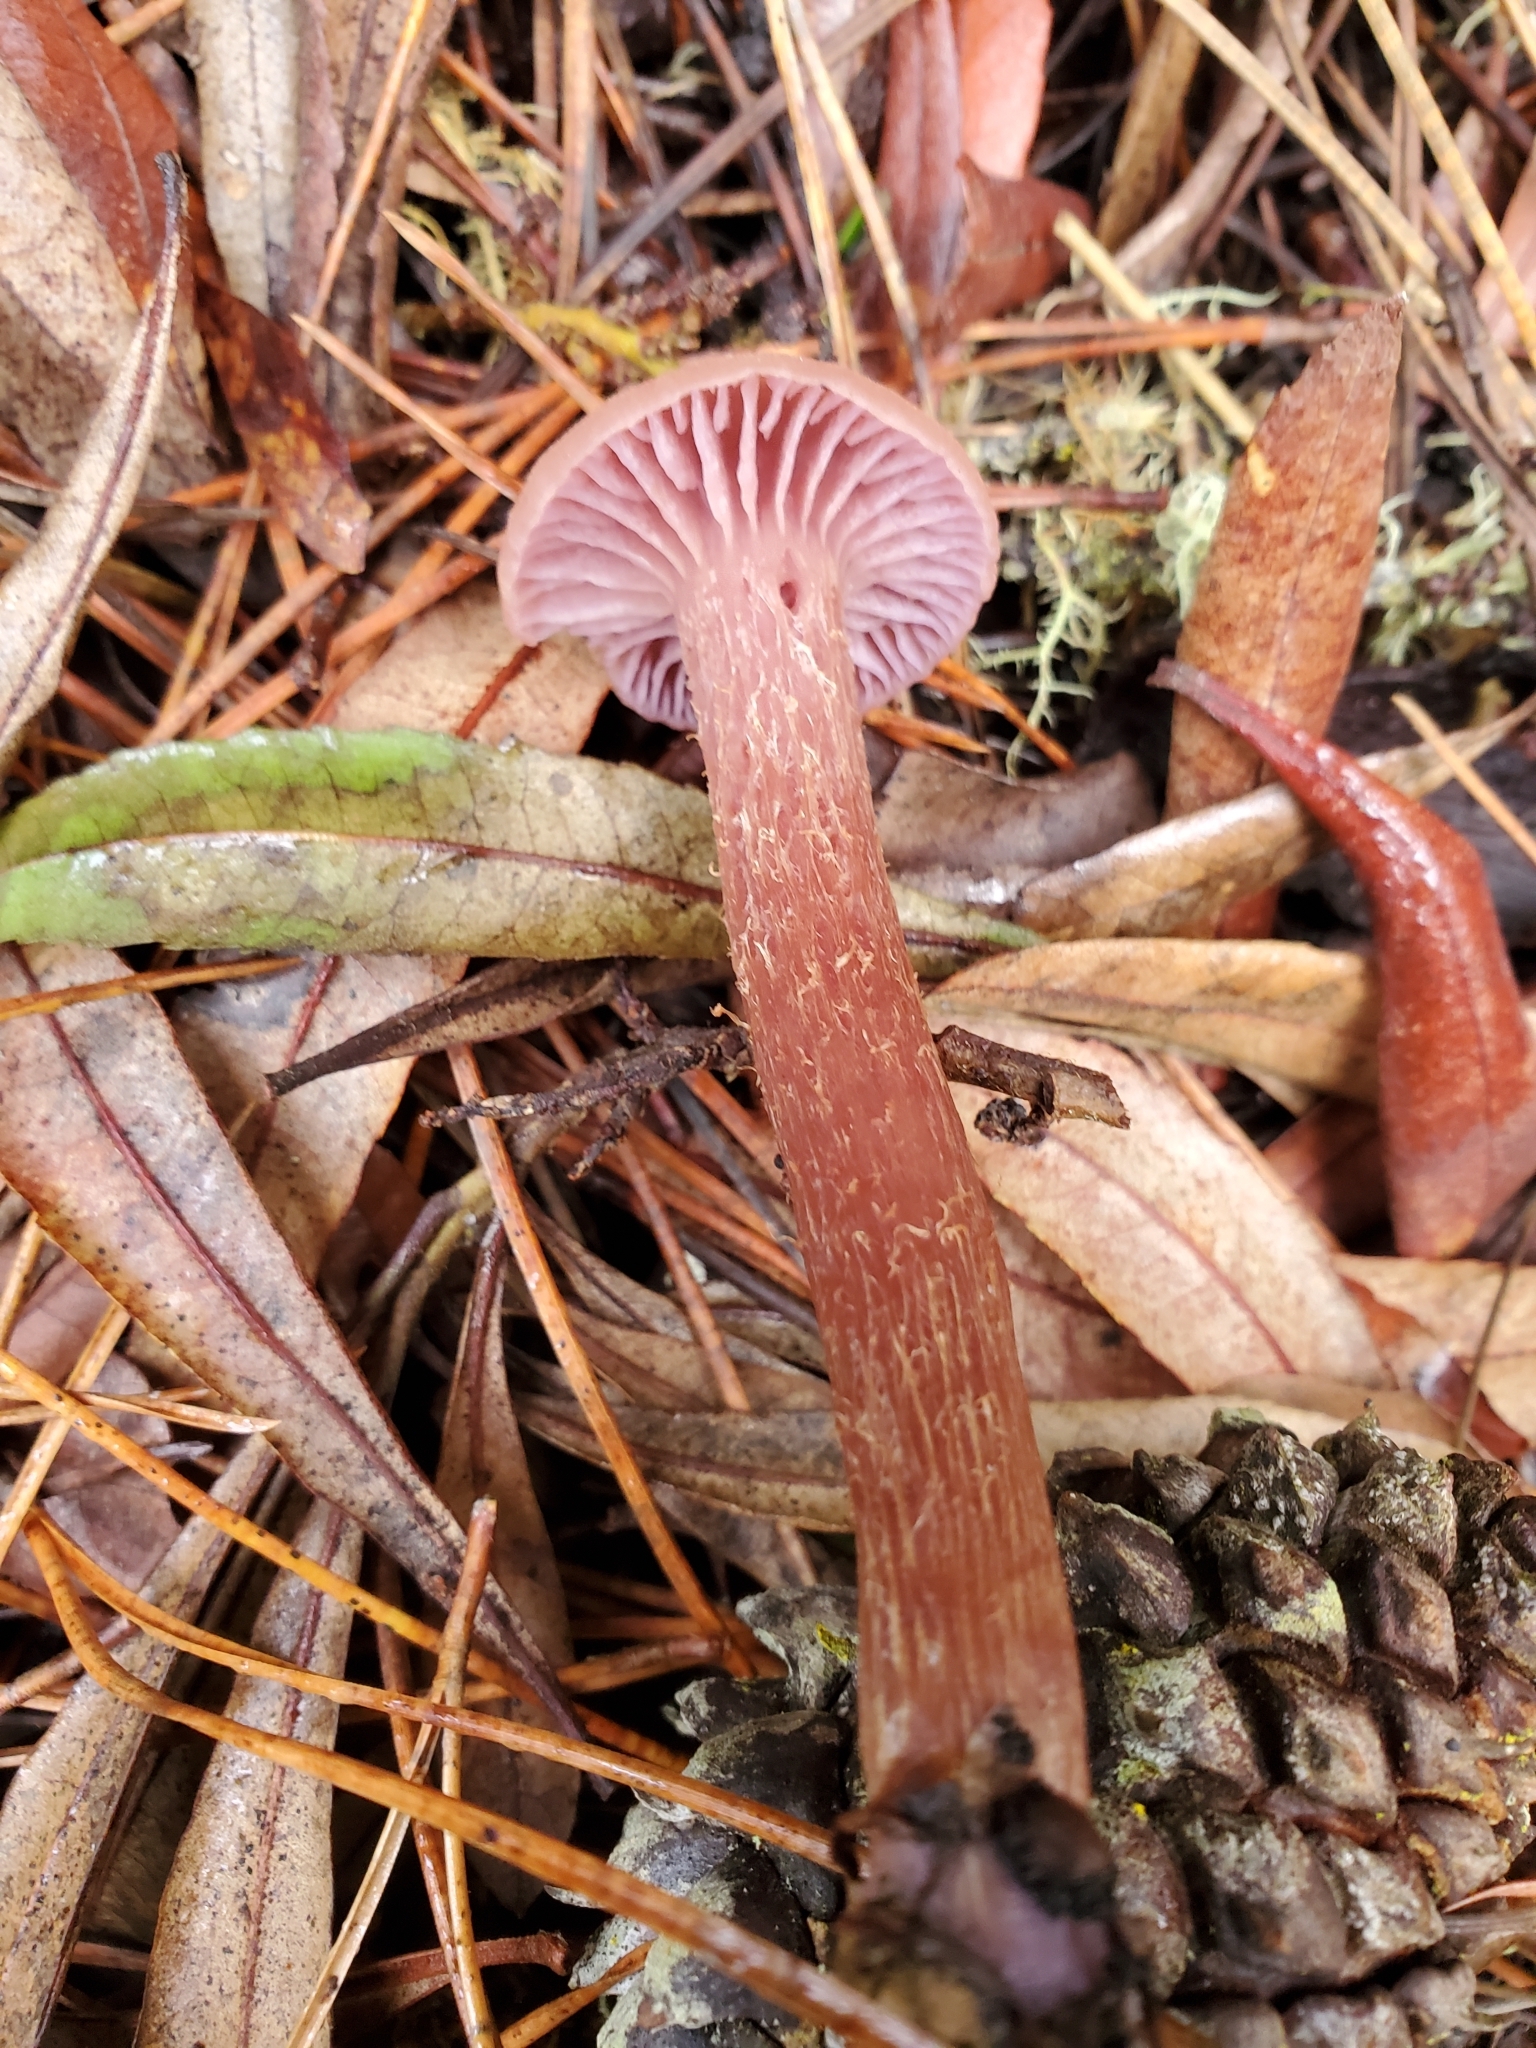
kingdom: Fungi
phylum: Basidiomycota
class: Agaricomycetes
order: Agaricales
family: Hydnangiaceae
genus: Laccaria
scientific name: Laccaria amethysteo-occidentalis
